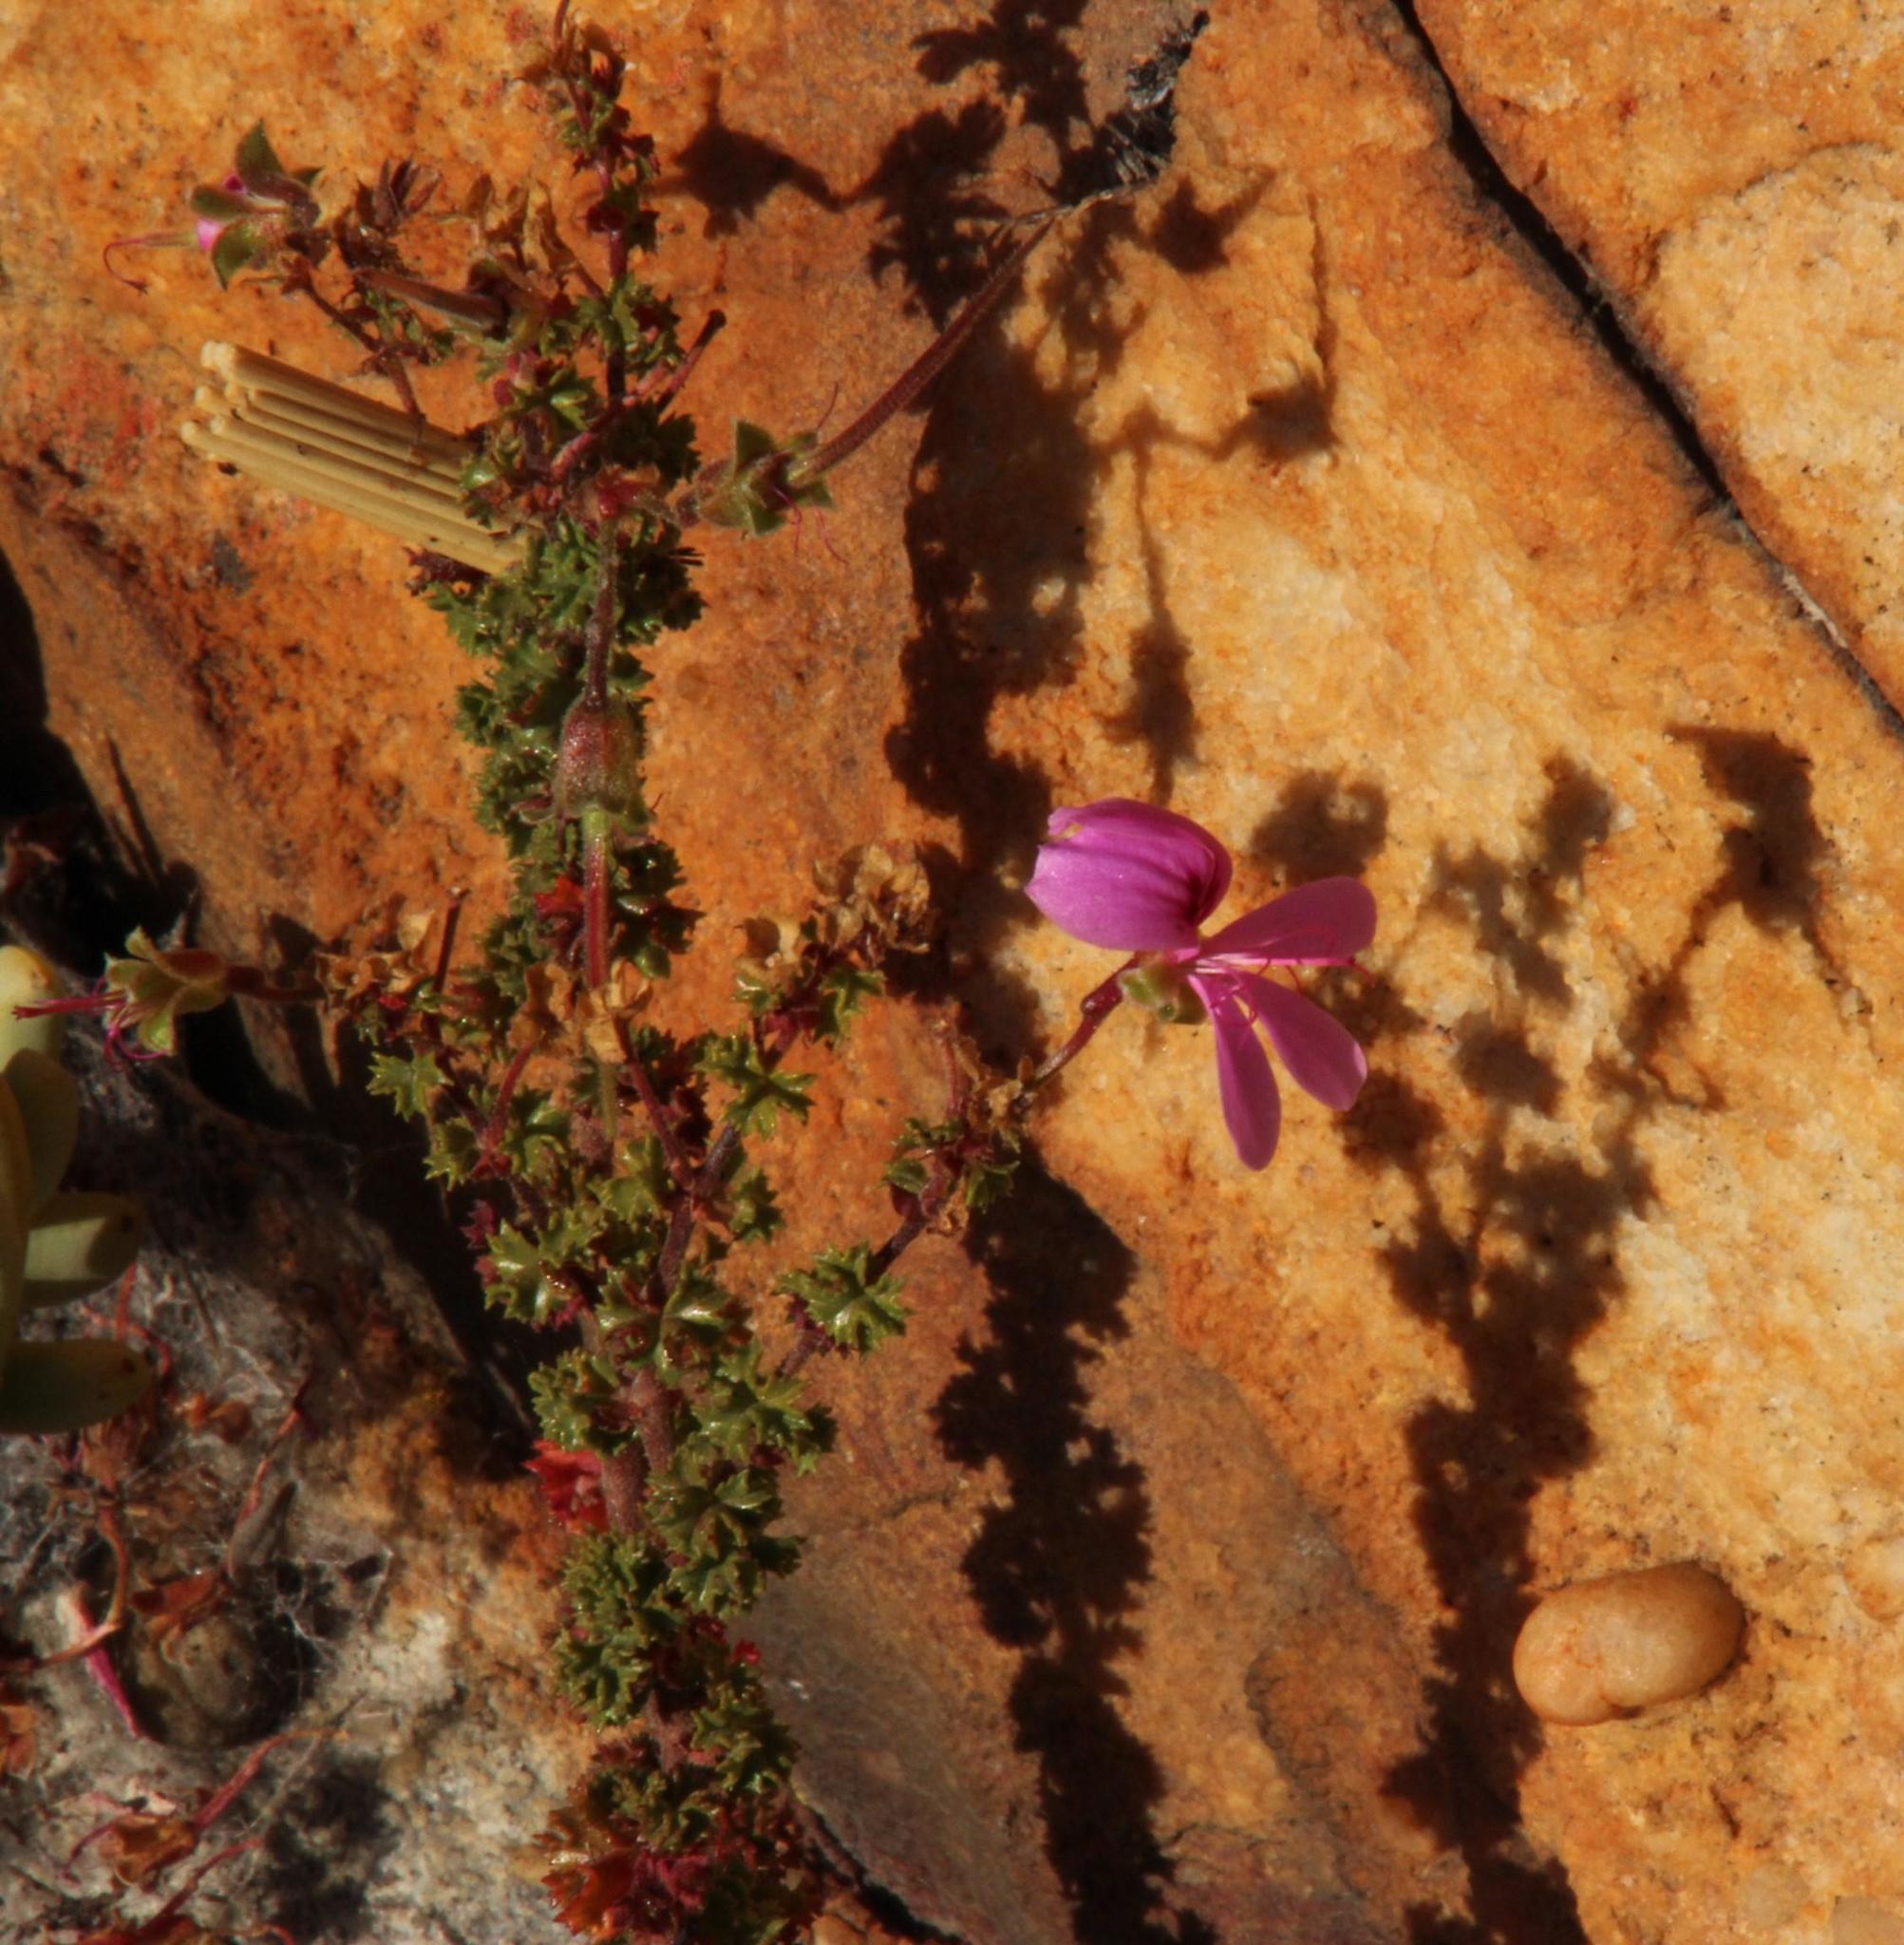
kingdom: Plantae
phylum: Tracheophyta
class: Magnoliopsida
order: Geraniales
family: Geraniaceae
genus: Pelargonium
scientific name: Pelargonium englerianum
